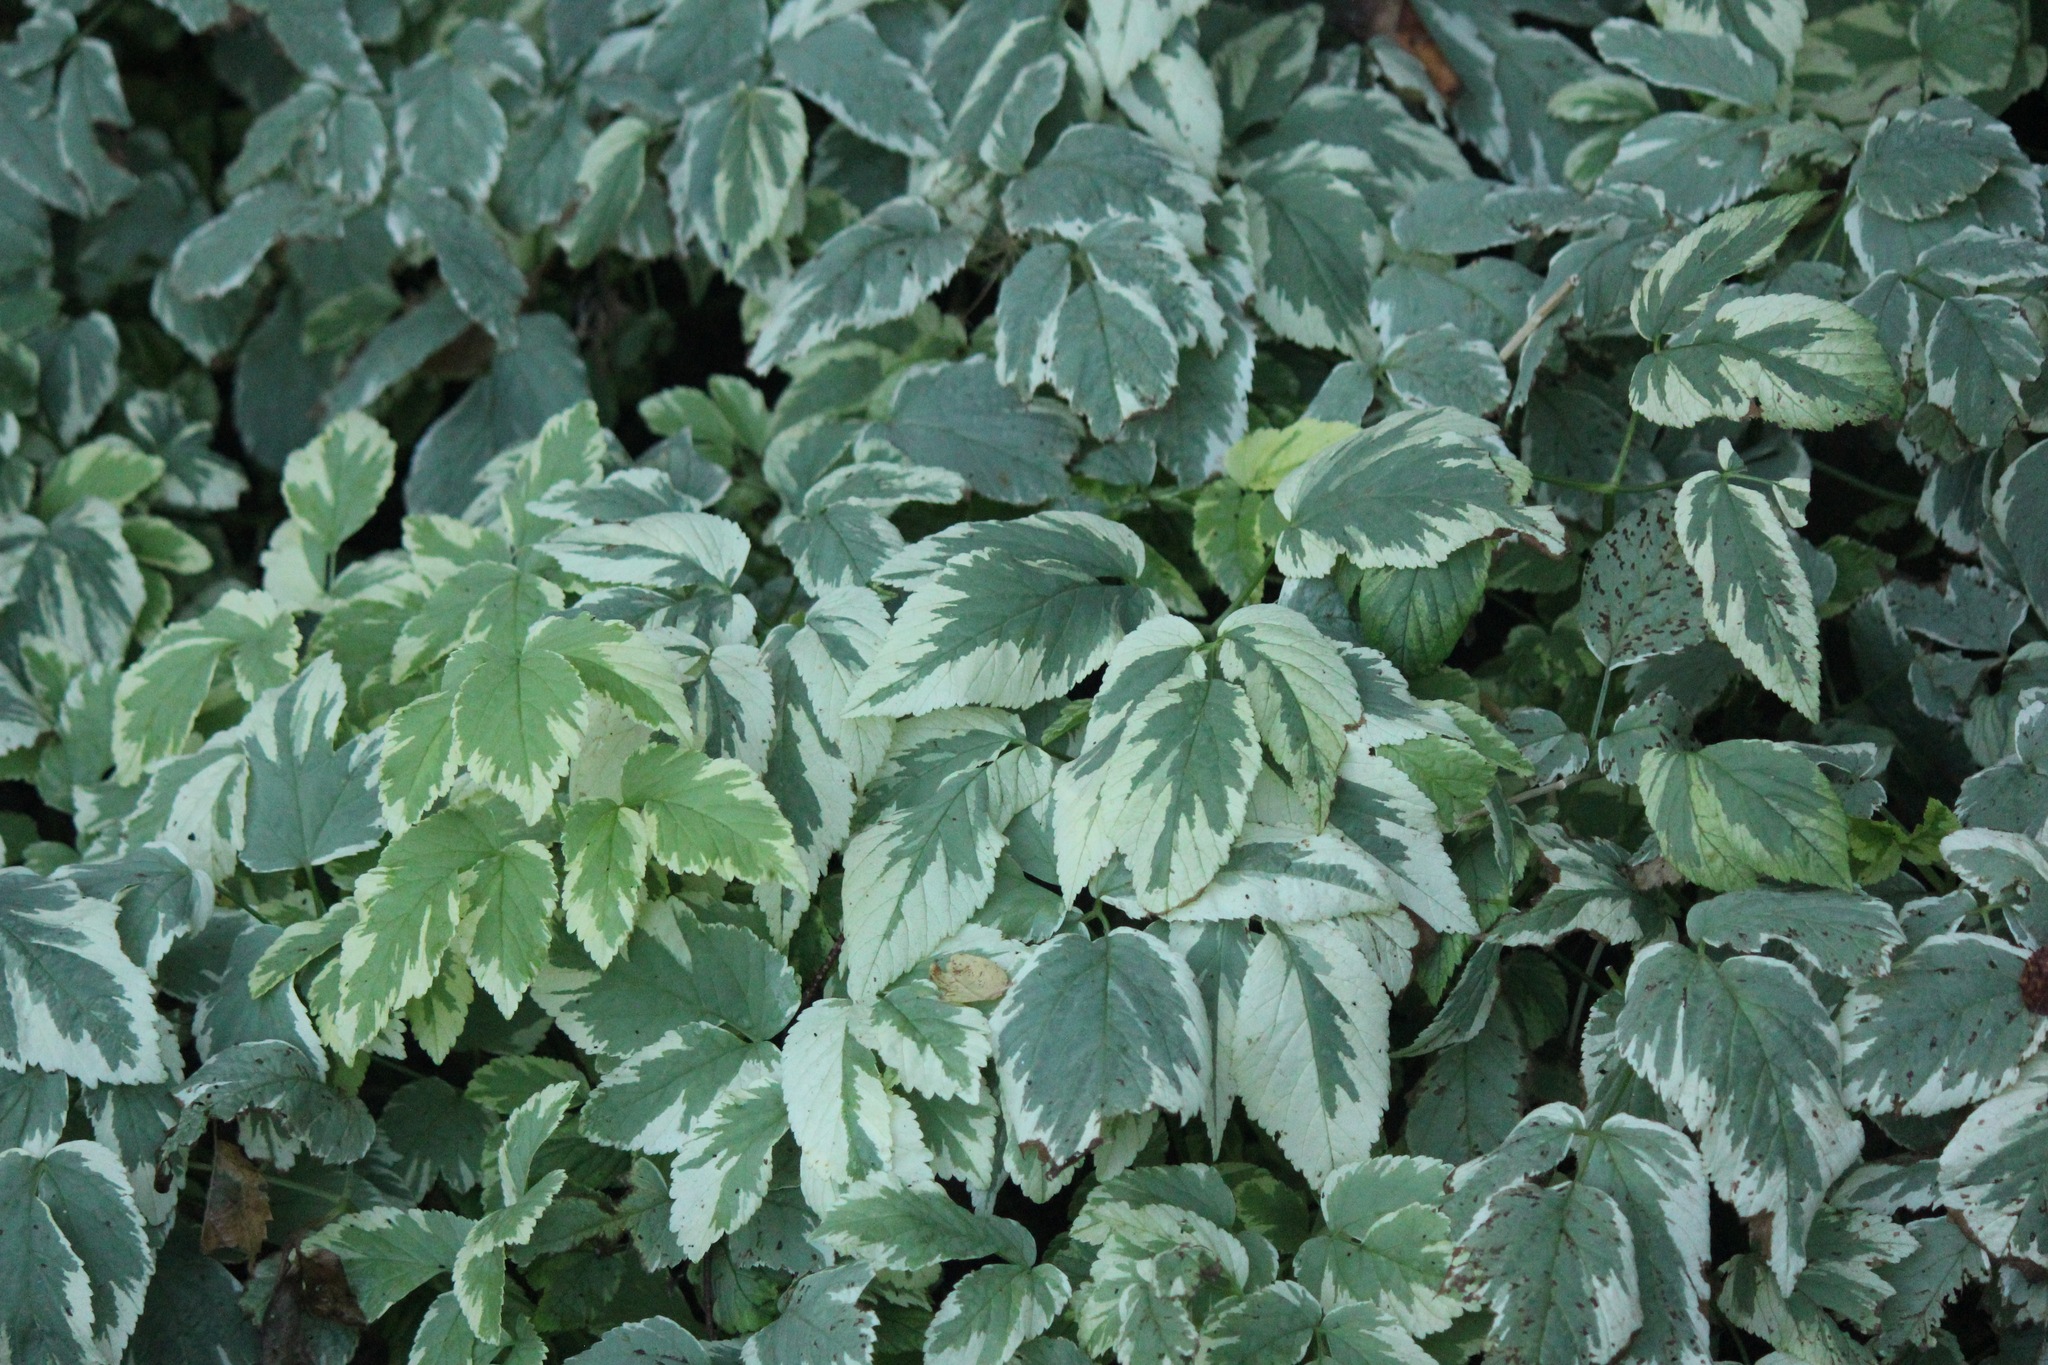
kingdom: Plantae
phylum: Tracheophyta
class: Magnoliopsida
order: Apiales
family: Apiaceae
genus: Aegopodium
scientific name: Aegopodium podagraria
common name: Ground-elder
